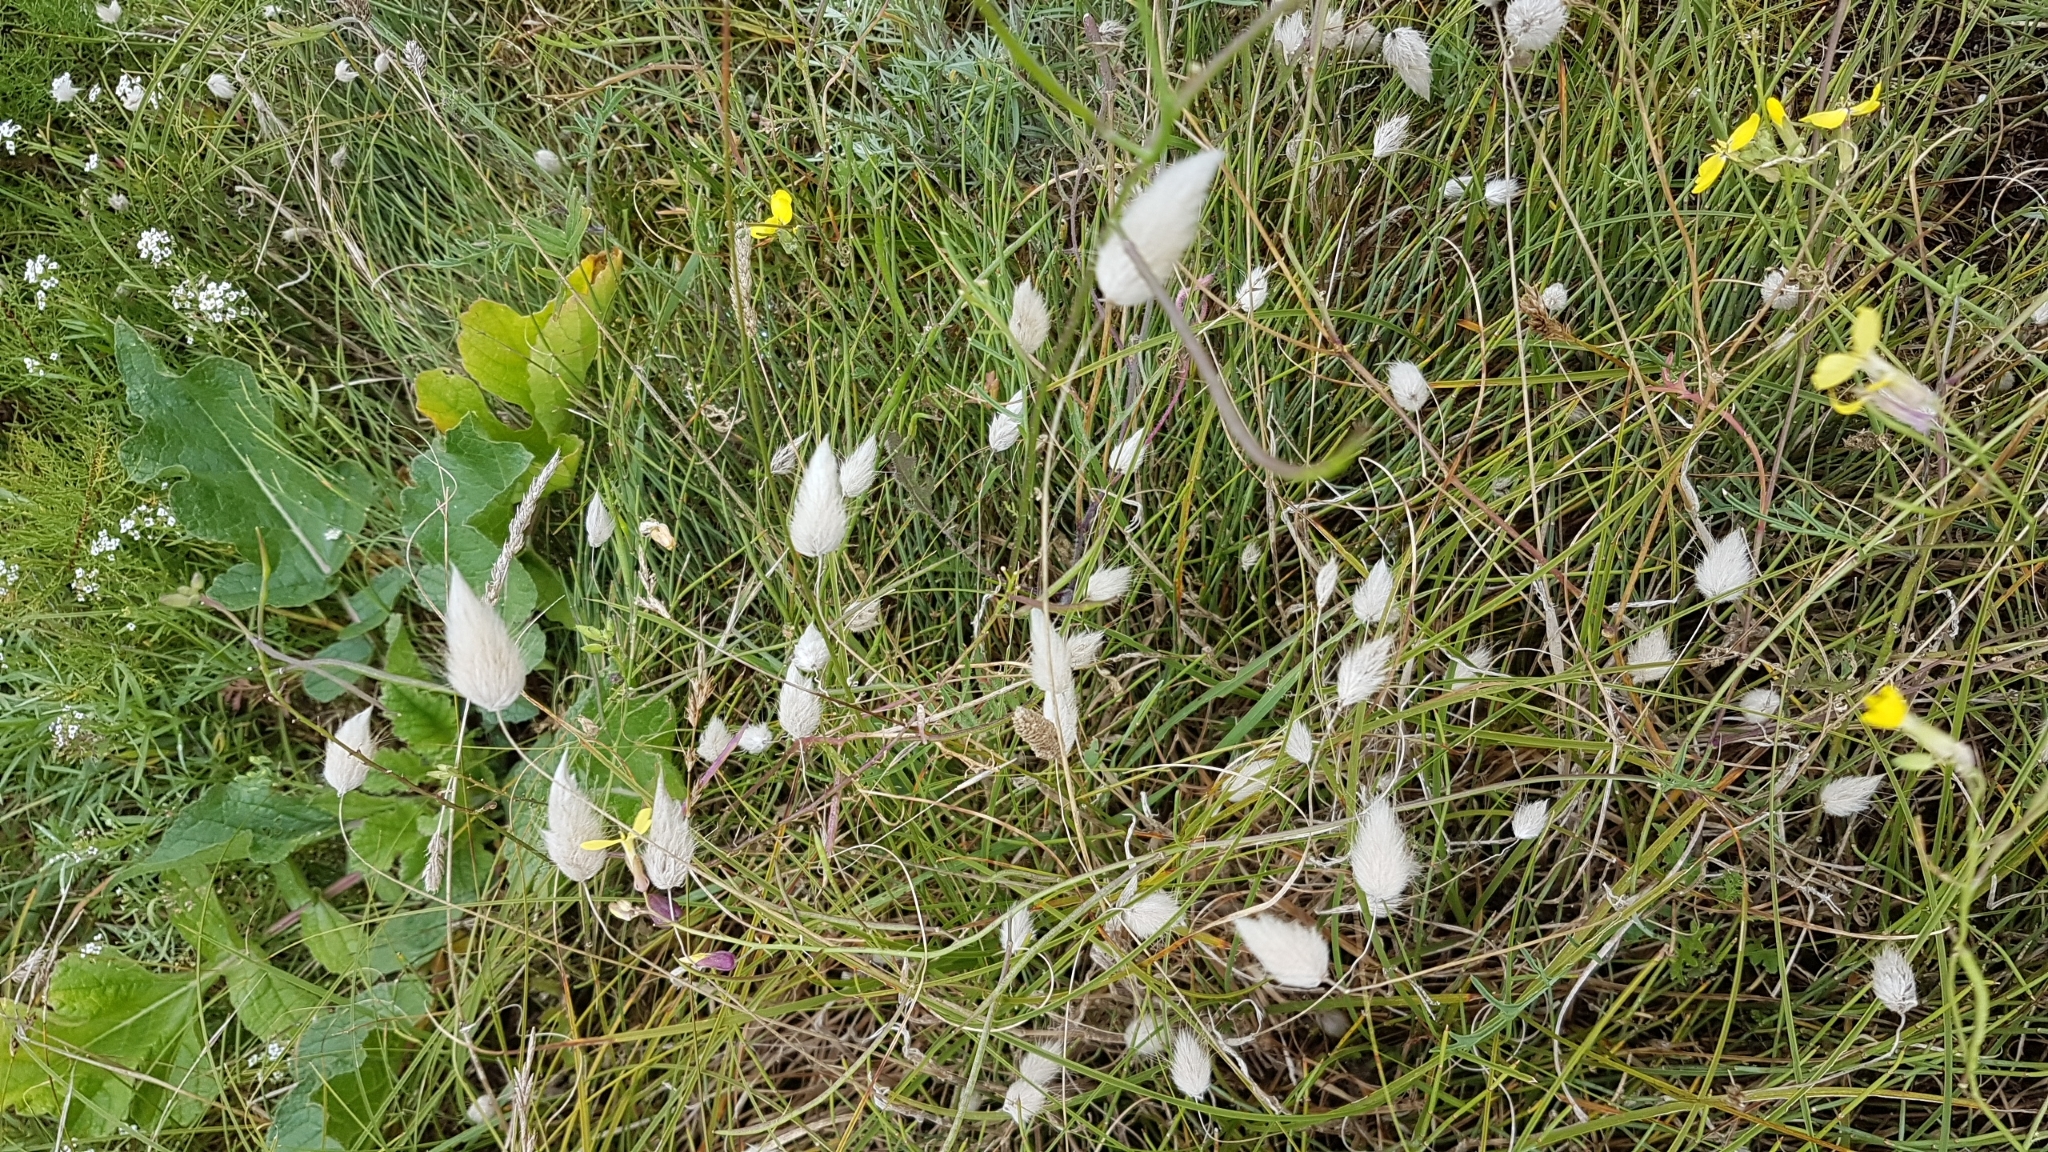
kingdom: Plantae
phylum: Tracheophyta
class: Liliopsida
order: Poales
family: Poaceae
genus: Lagurus
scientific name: Lagurus ovatus
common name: Hare's-tail
